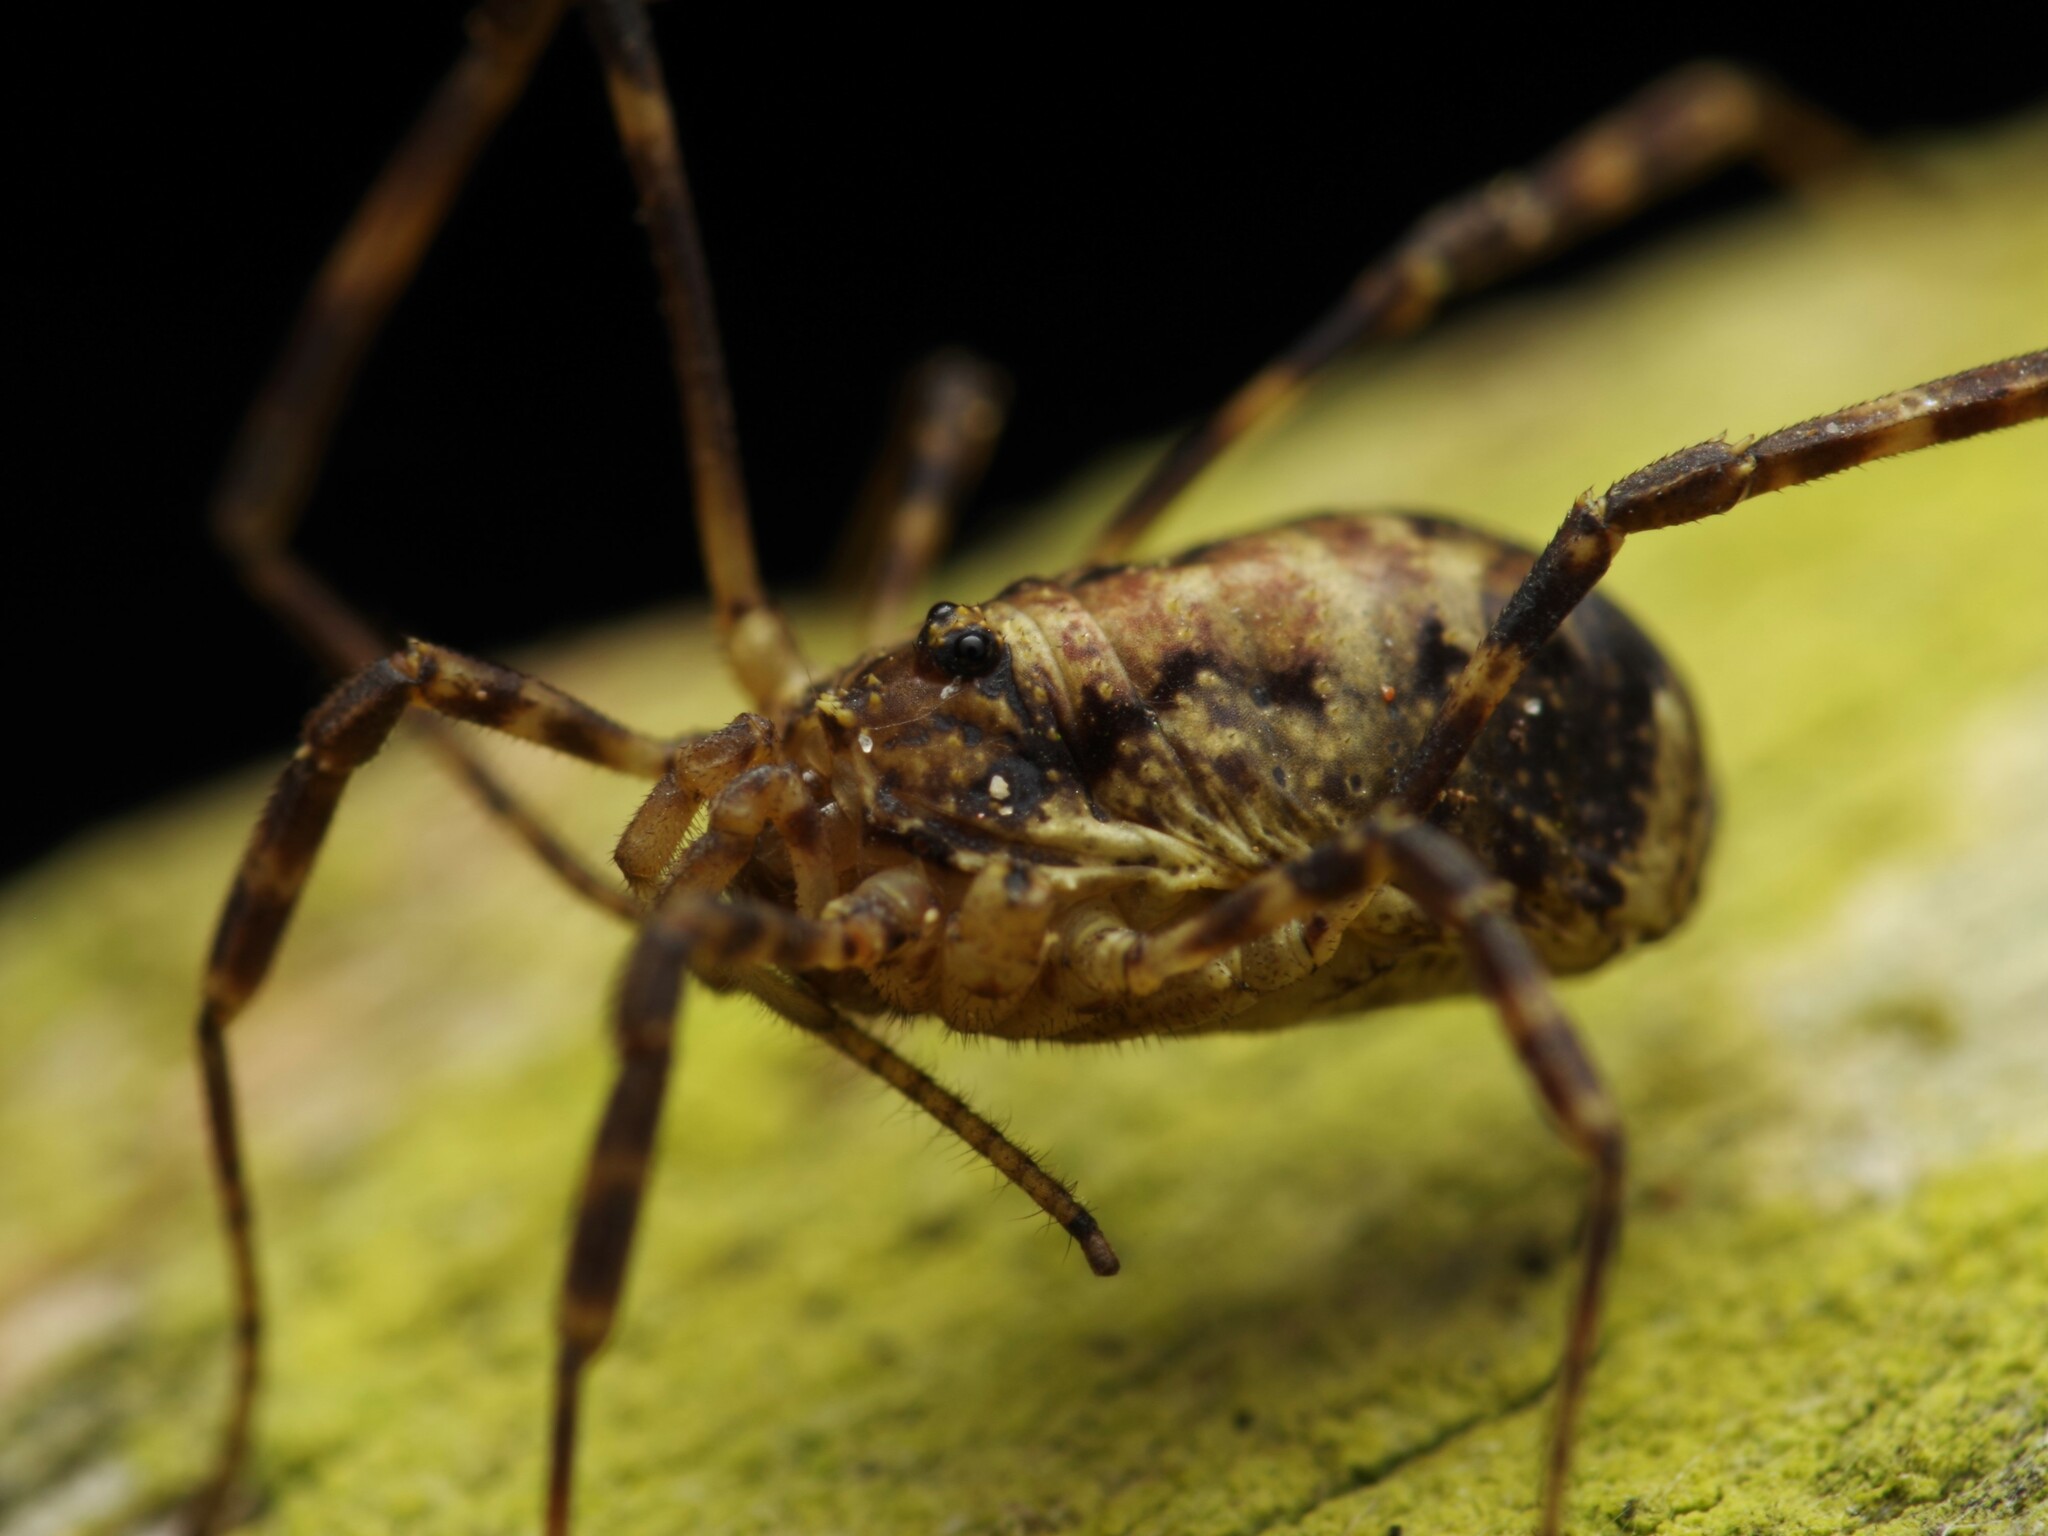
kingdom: Animalia
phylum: Arthropoda
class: Arachnida
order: Opiliones
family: Phalangiidae
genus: Oligolophus
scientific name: Oligolophus hansenii
